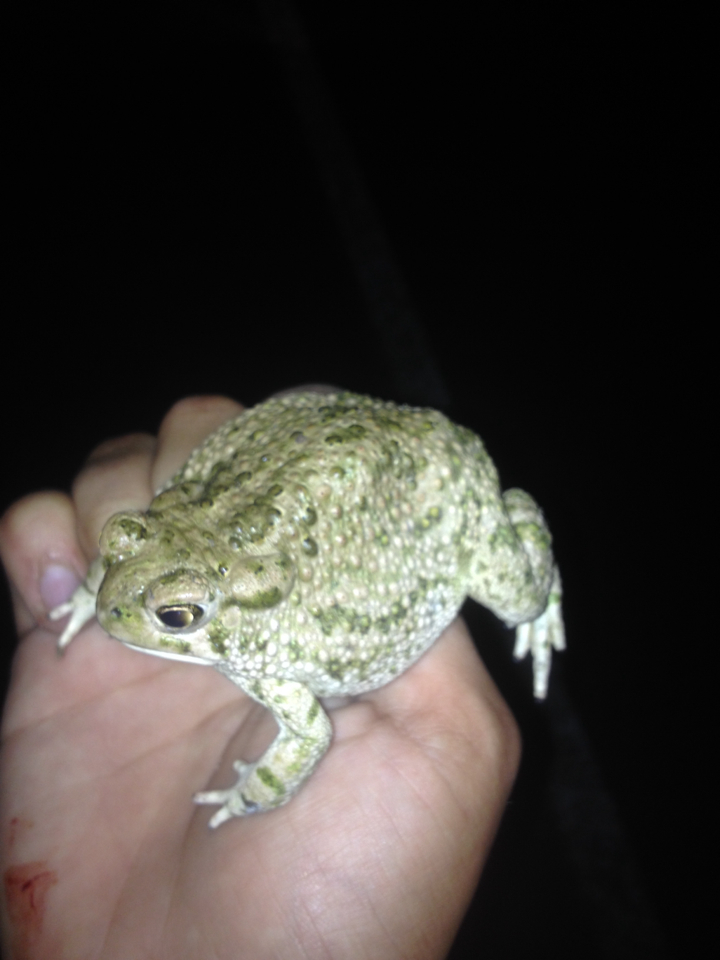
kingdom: Animalia
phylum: Chordata
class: Amphibia
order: Anura
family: Bufonidae
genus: Anaxyrus
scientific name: Anaxyrus speciosus
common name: Texas toad
